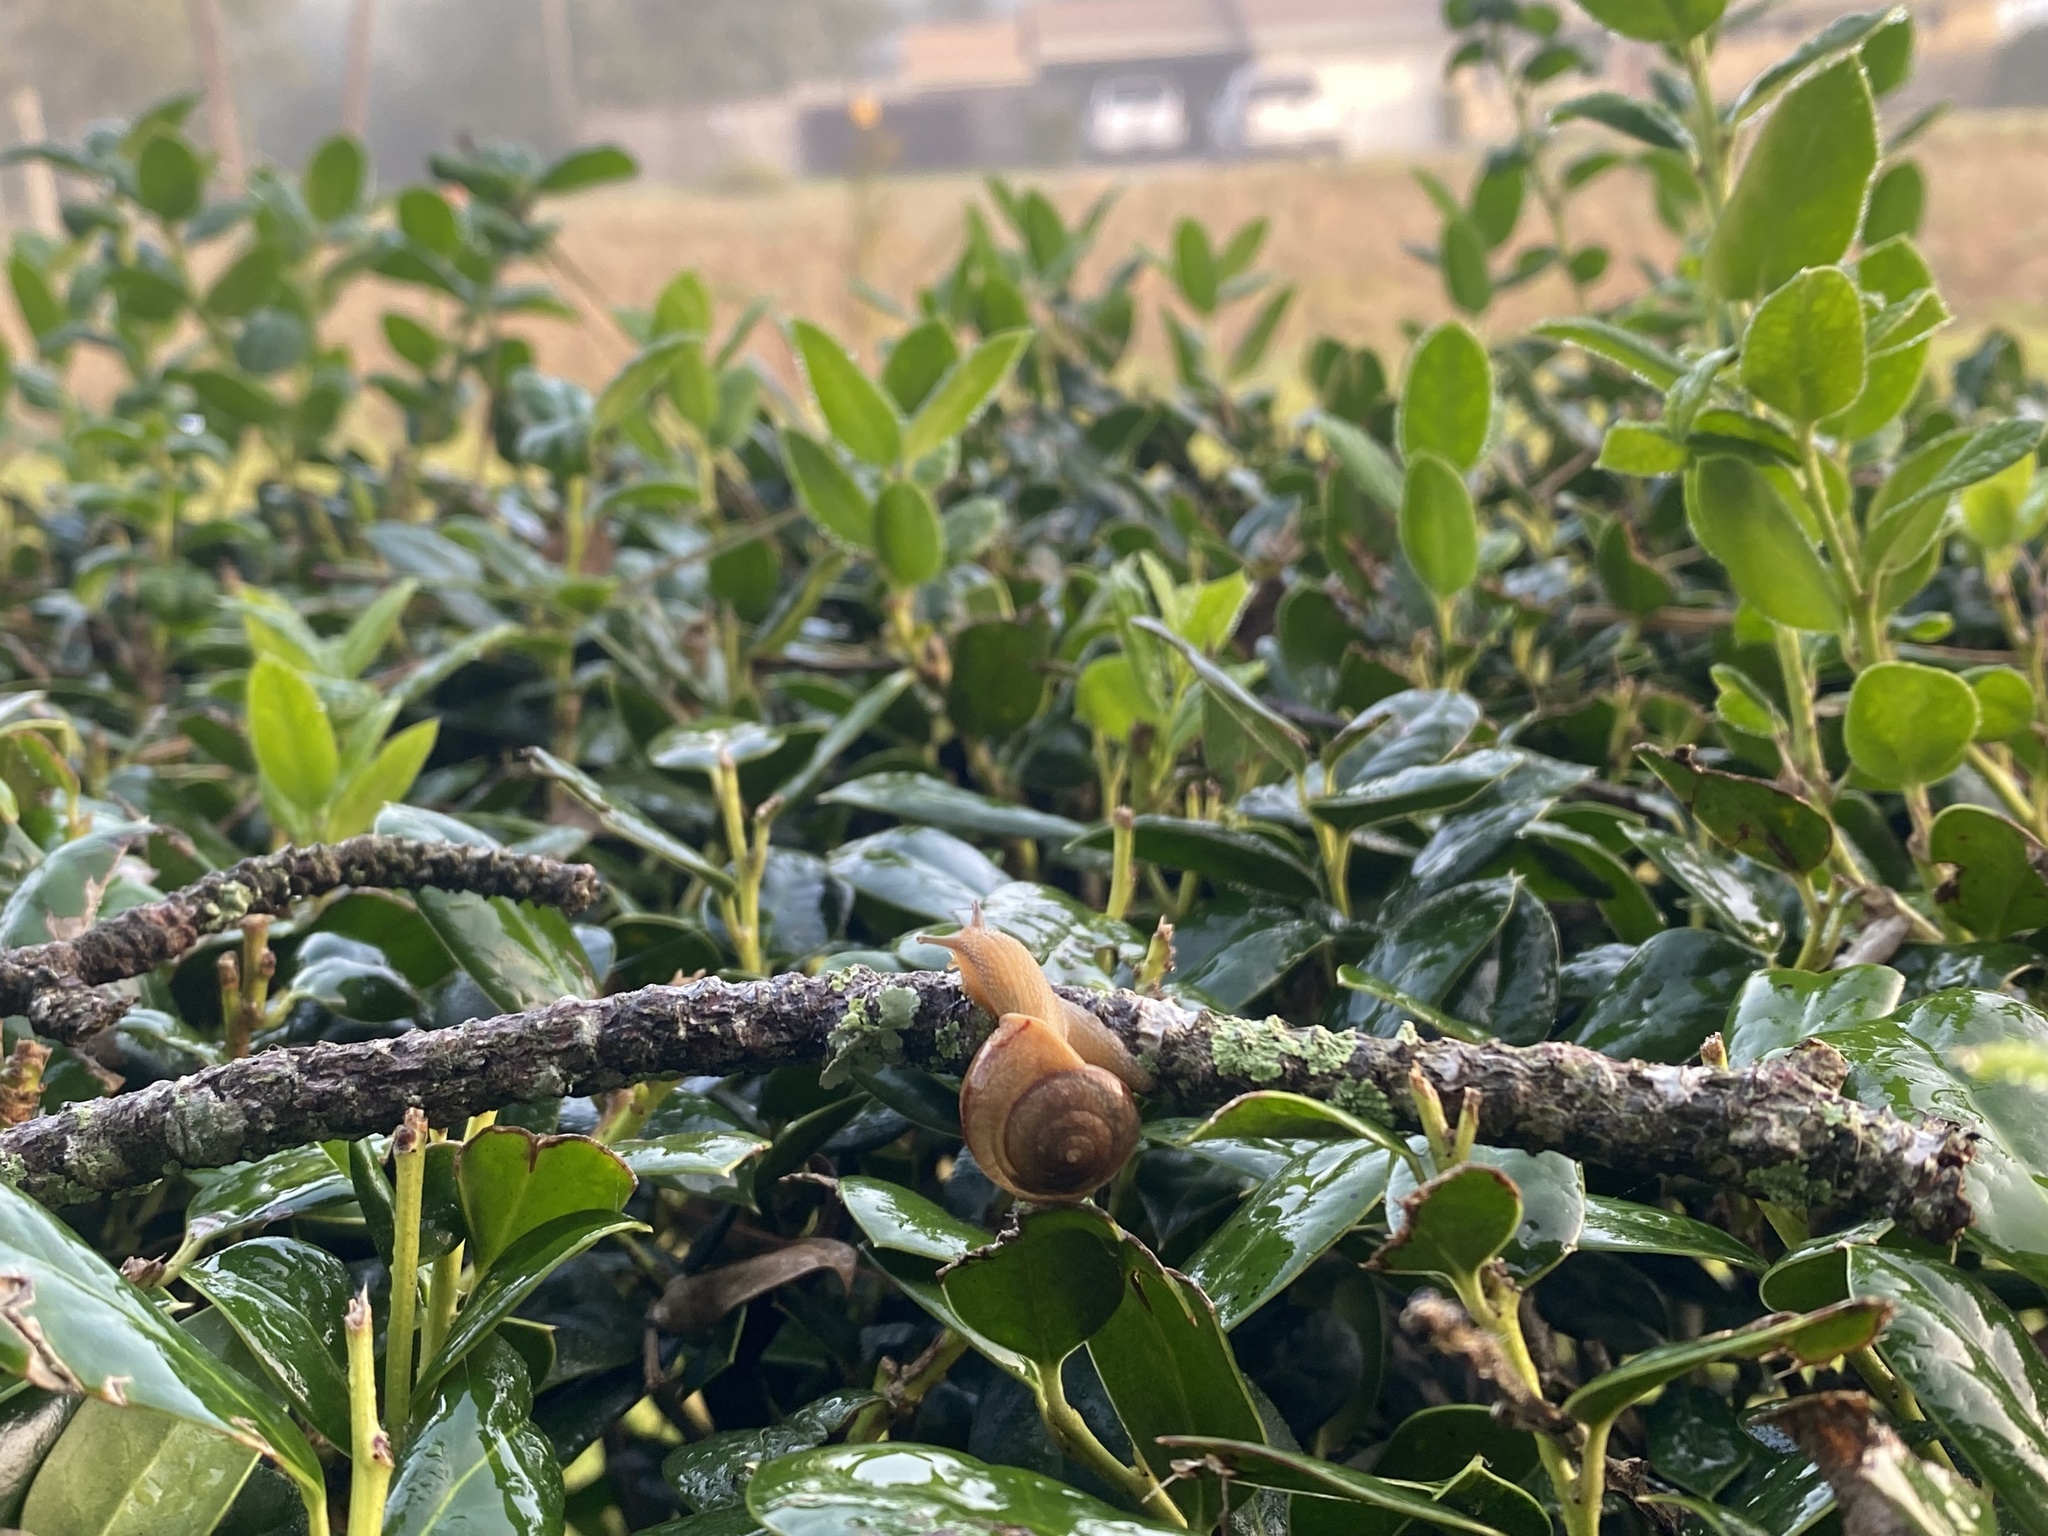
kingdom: Animalia
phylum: Mollusca
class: Gastropoda
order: Stylommatophora
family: Camaenidae
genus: Bradybaena
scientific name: Bradybaena similaris
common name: Asian trampsnail
